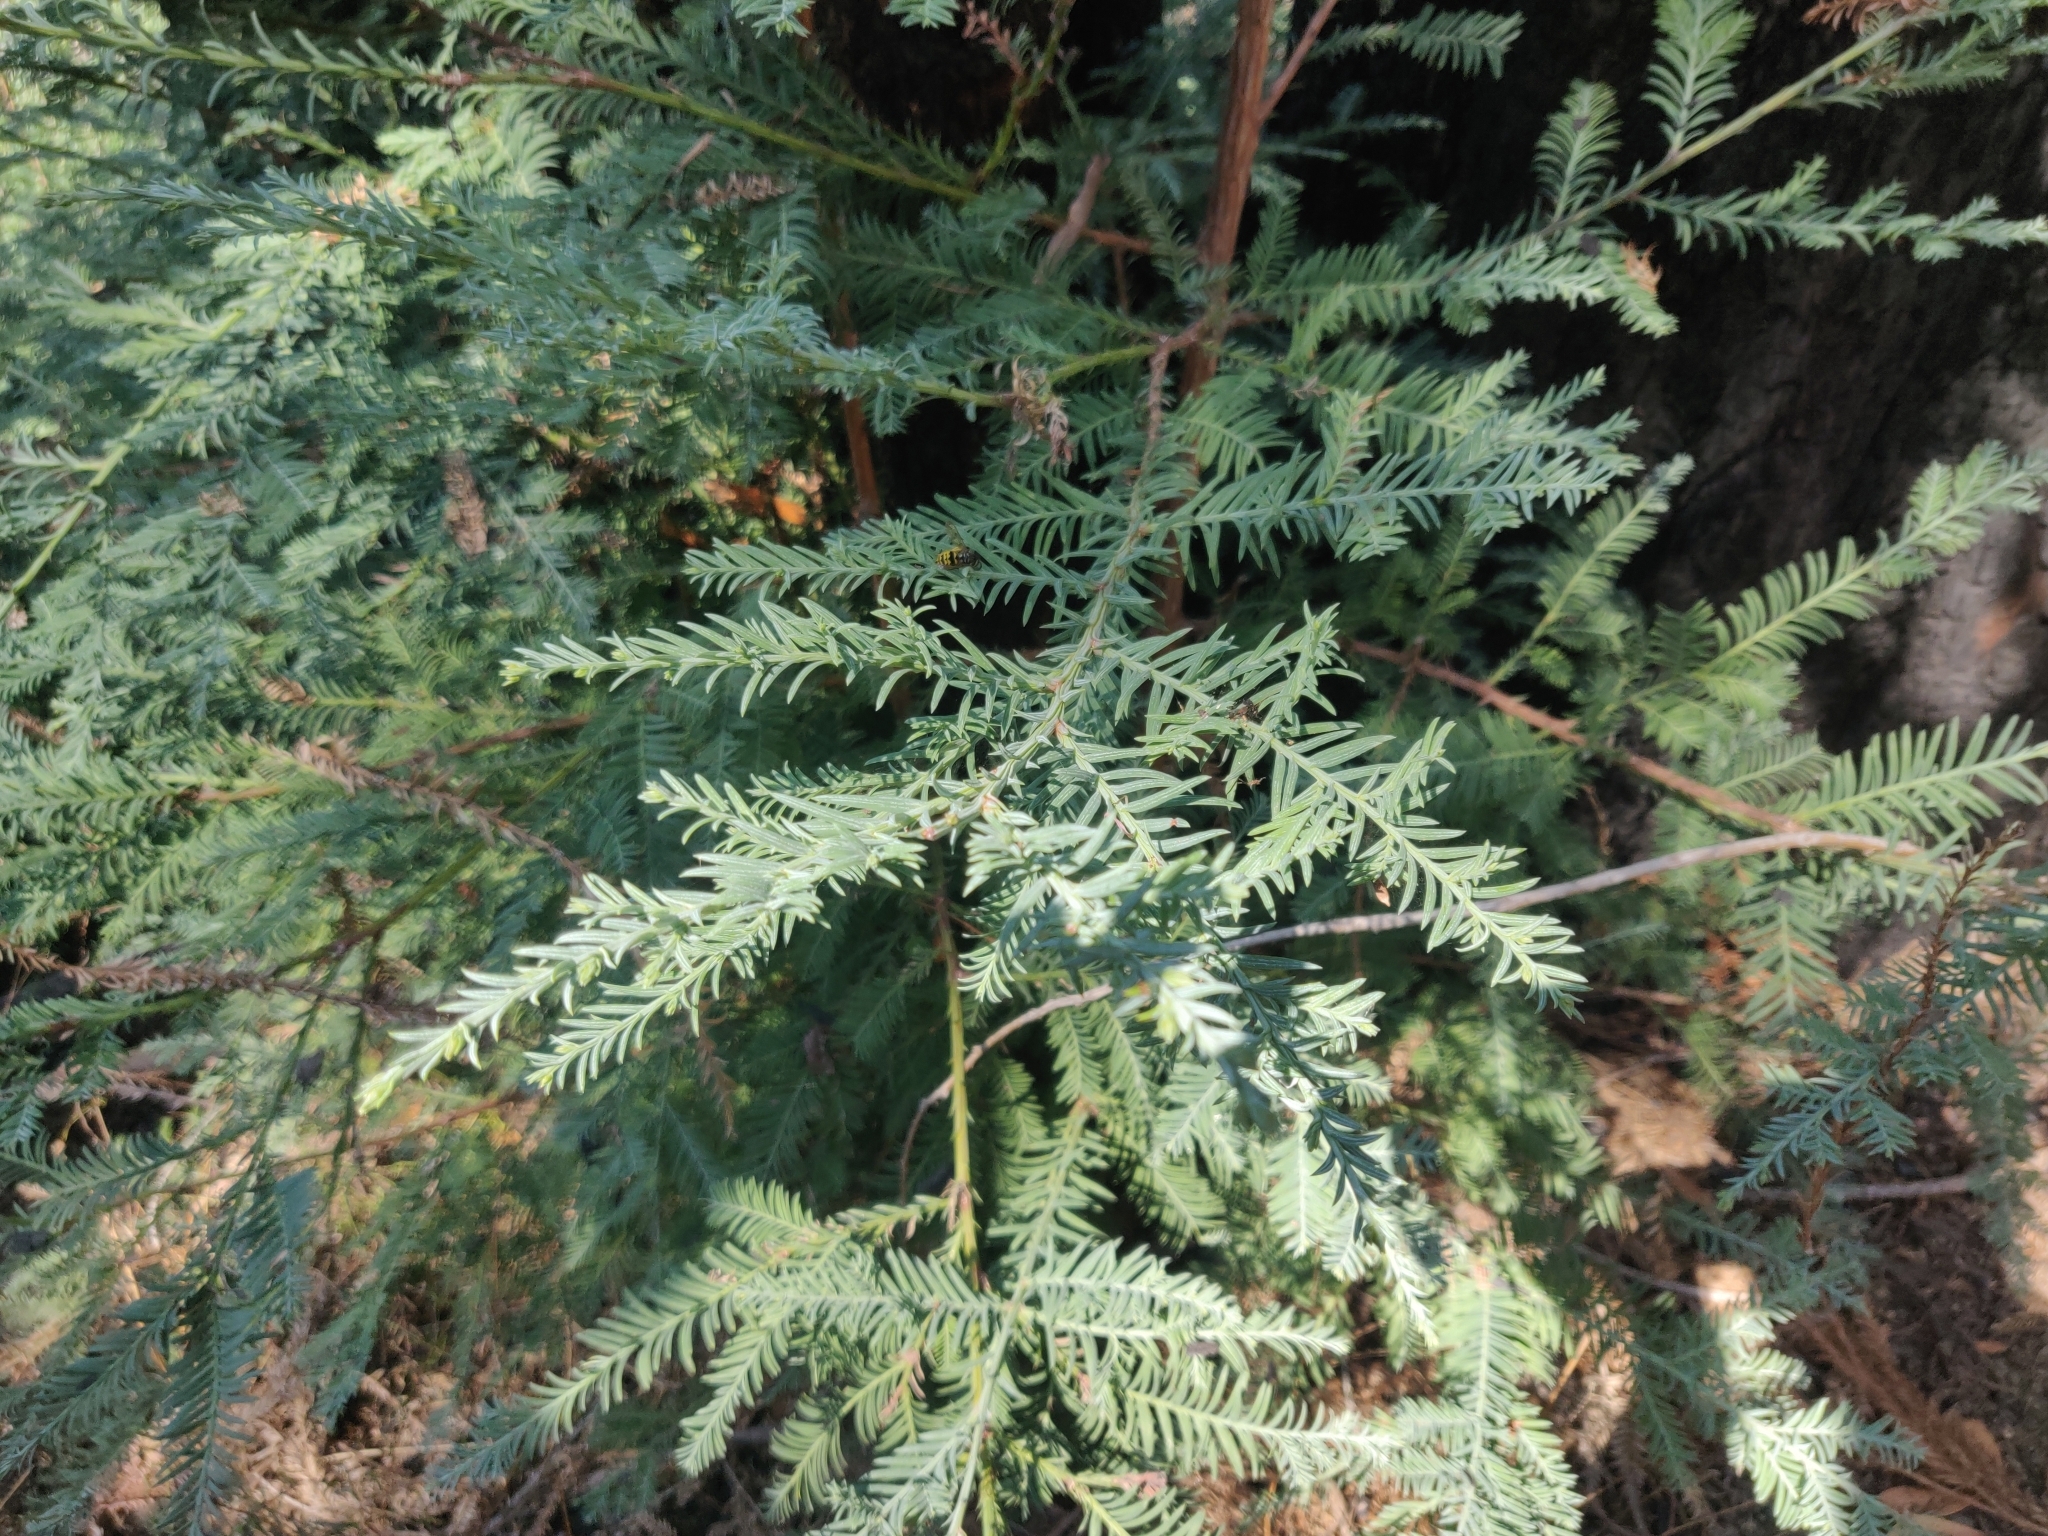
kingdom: Plantae
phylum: Tracheophyta
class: Pinopsida
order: Pinales
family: Cupressaceae
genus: Sequoia
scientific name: Sequoia sempervirens
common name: Coast redwood
